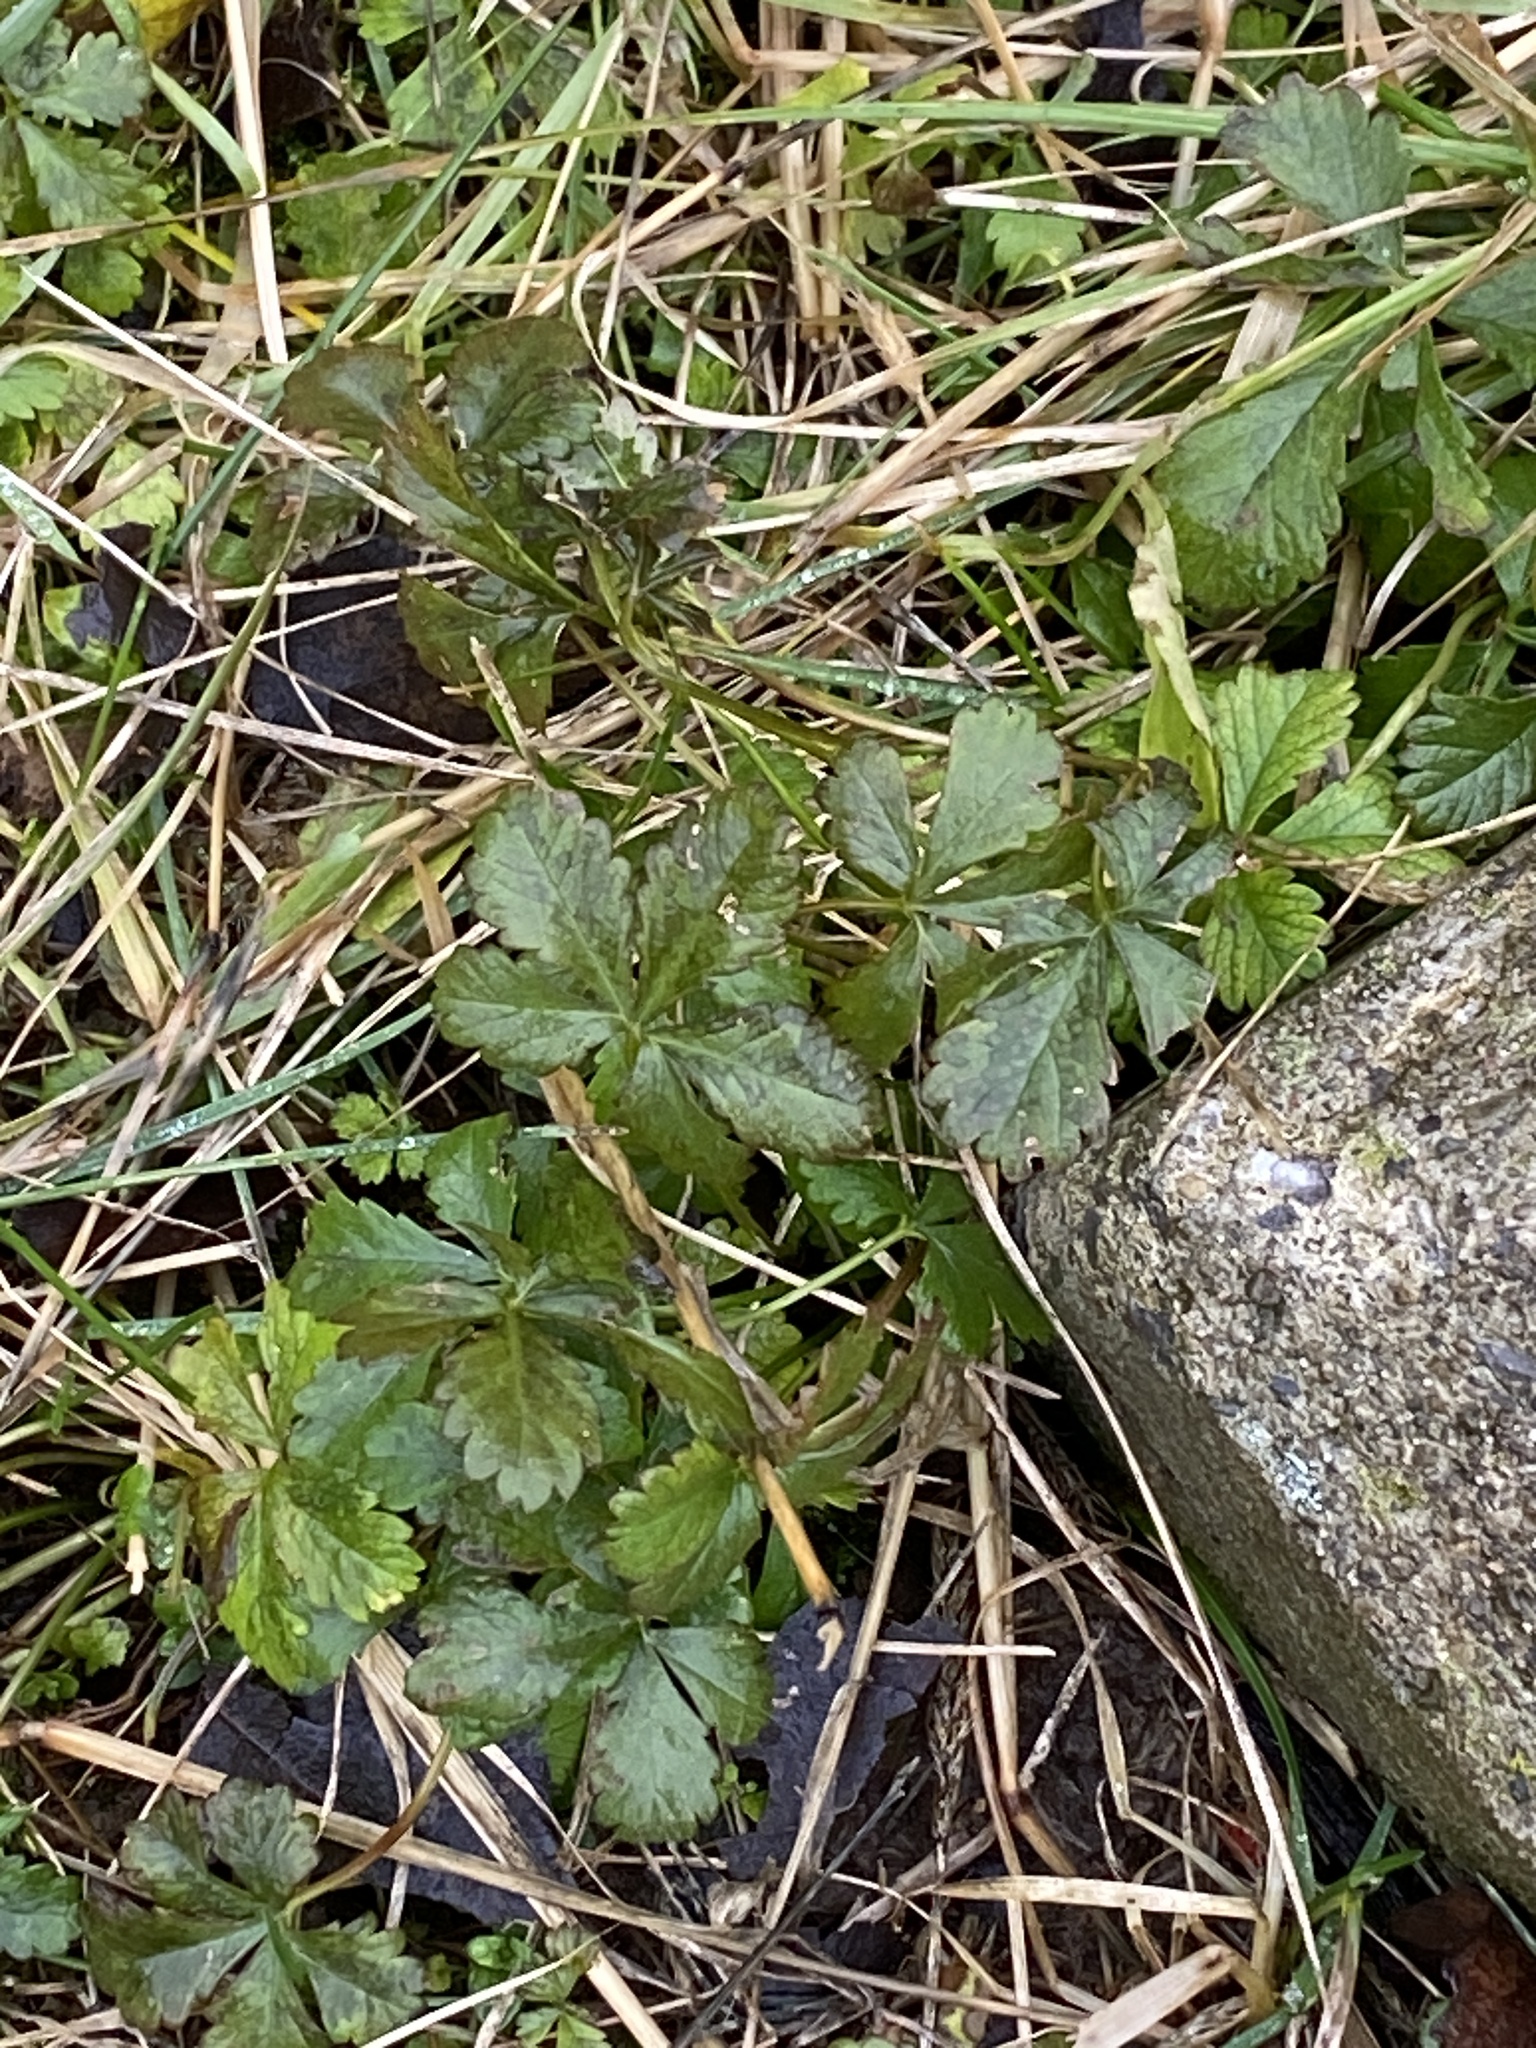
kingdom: Plantae
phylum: Tracheophyta
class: Magnoliopsida
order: Rosales
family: Rosaceae
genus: Potentilla
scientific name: Potentilla reptans
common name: Creeping cinquefoil
